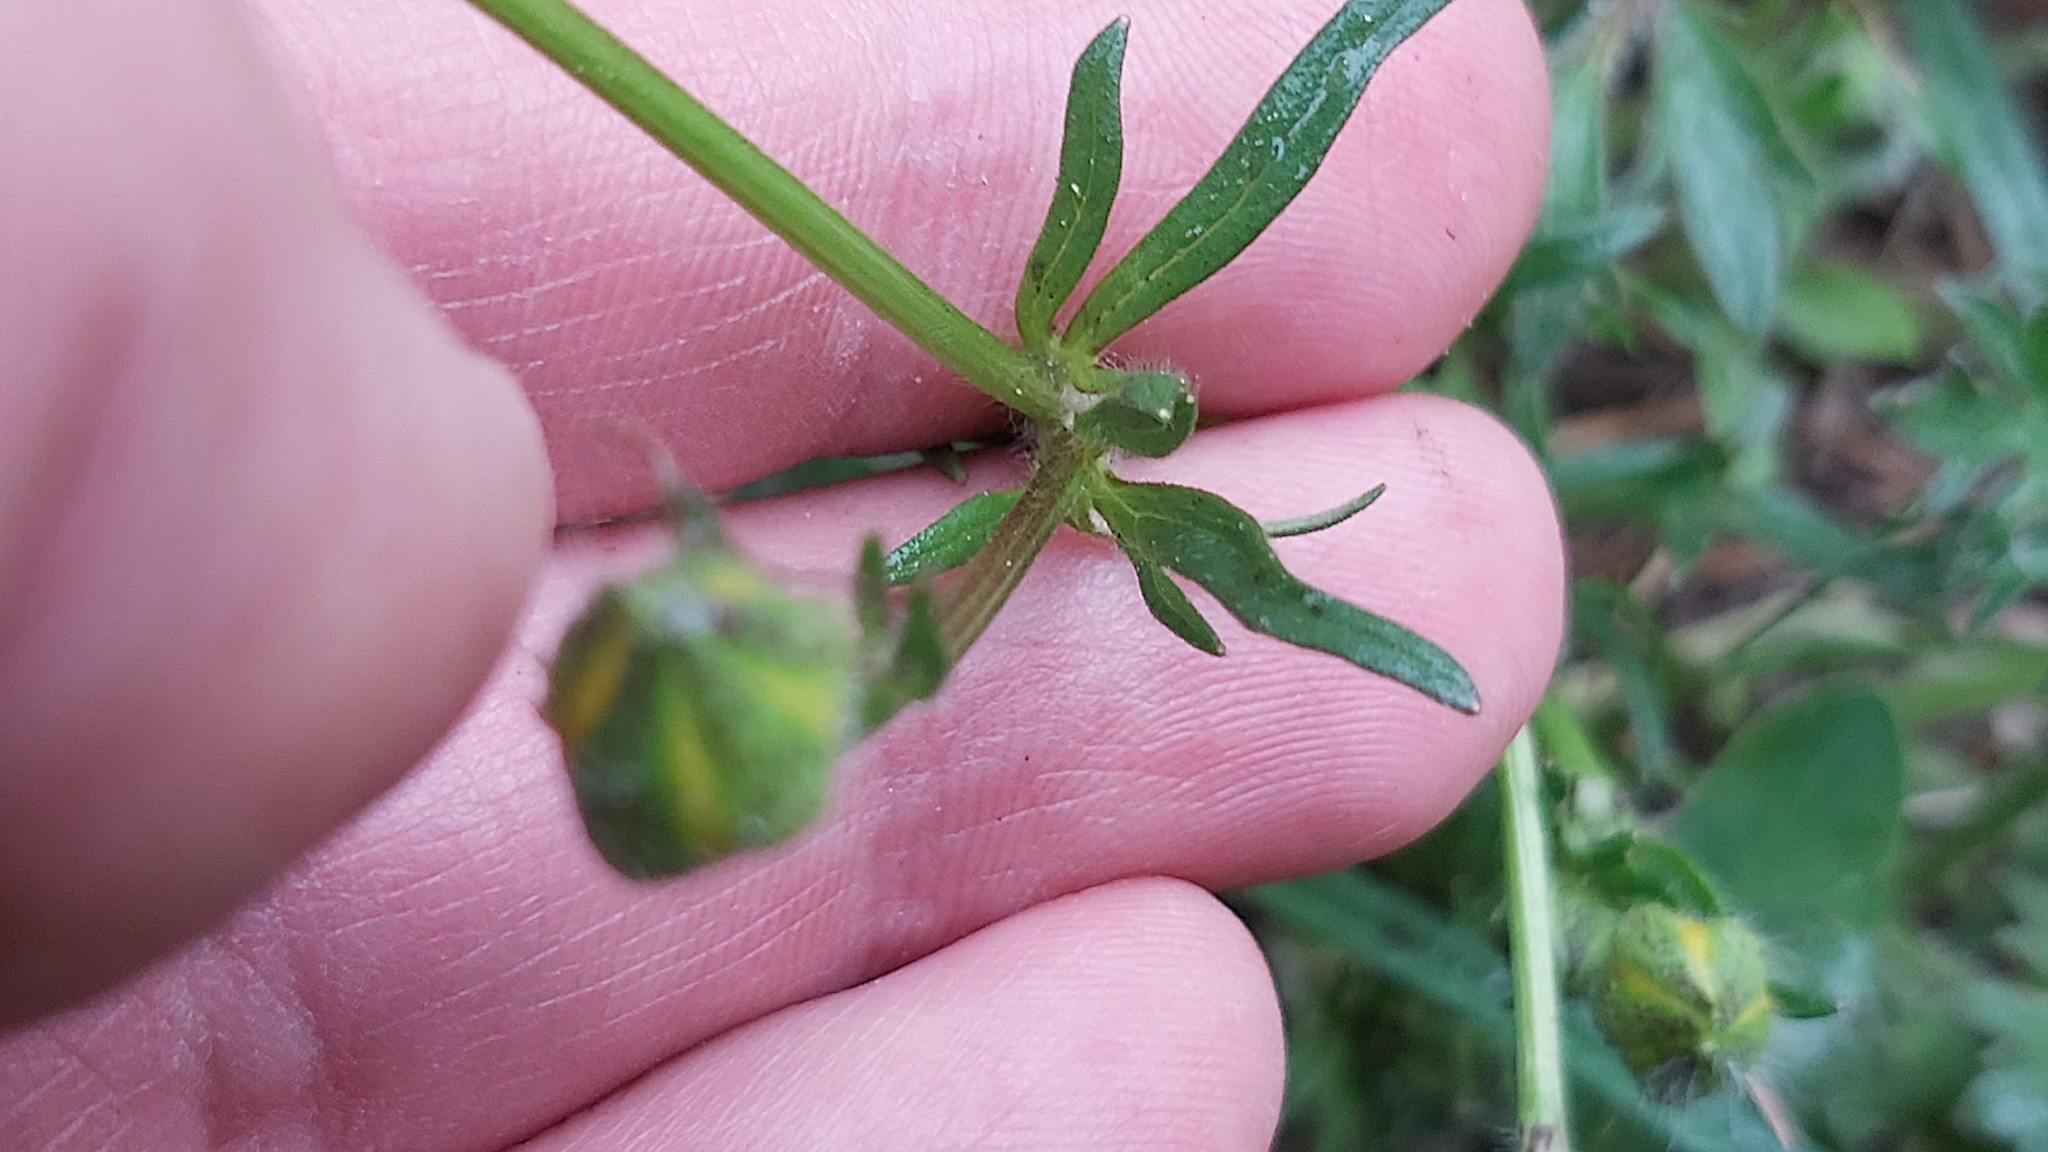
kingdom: Plantae
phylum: Tracheophyta
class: Magnoliopsida
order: Ranunculales
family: Ranunculaceae
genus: Ranunculus
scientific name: Ranunculus bulbosus
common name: Bulbous buttercup
